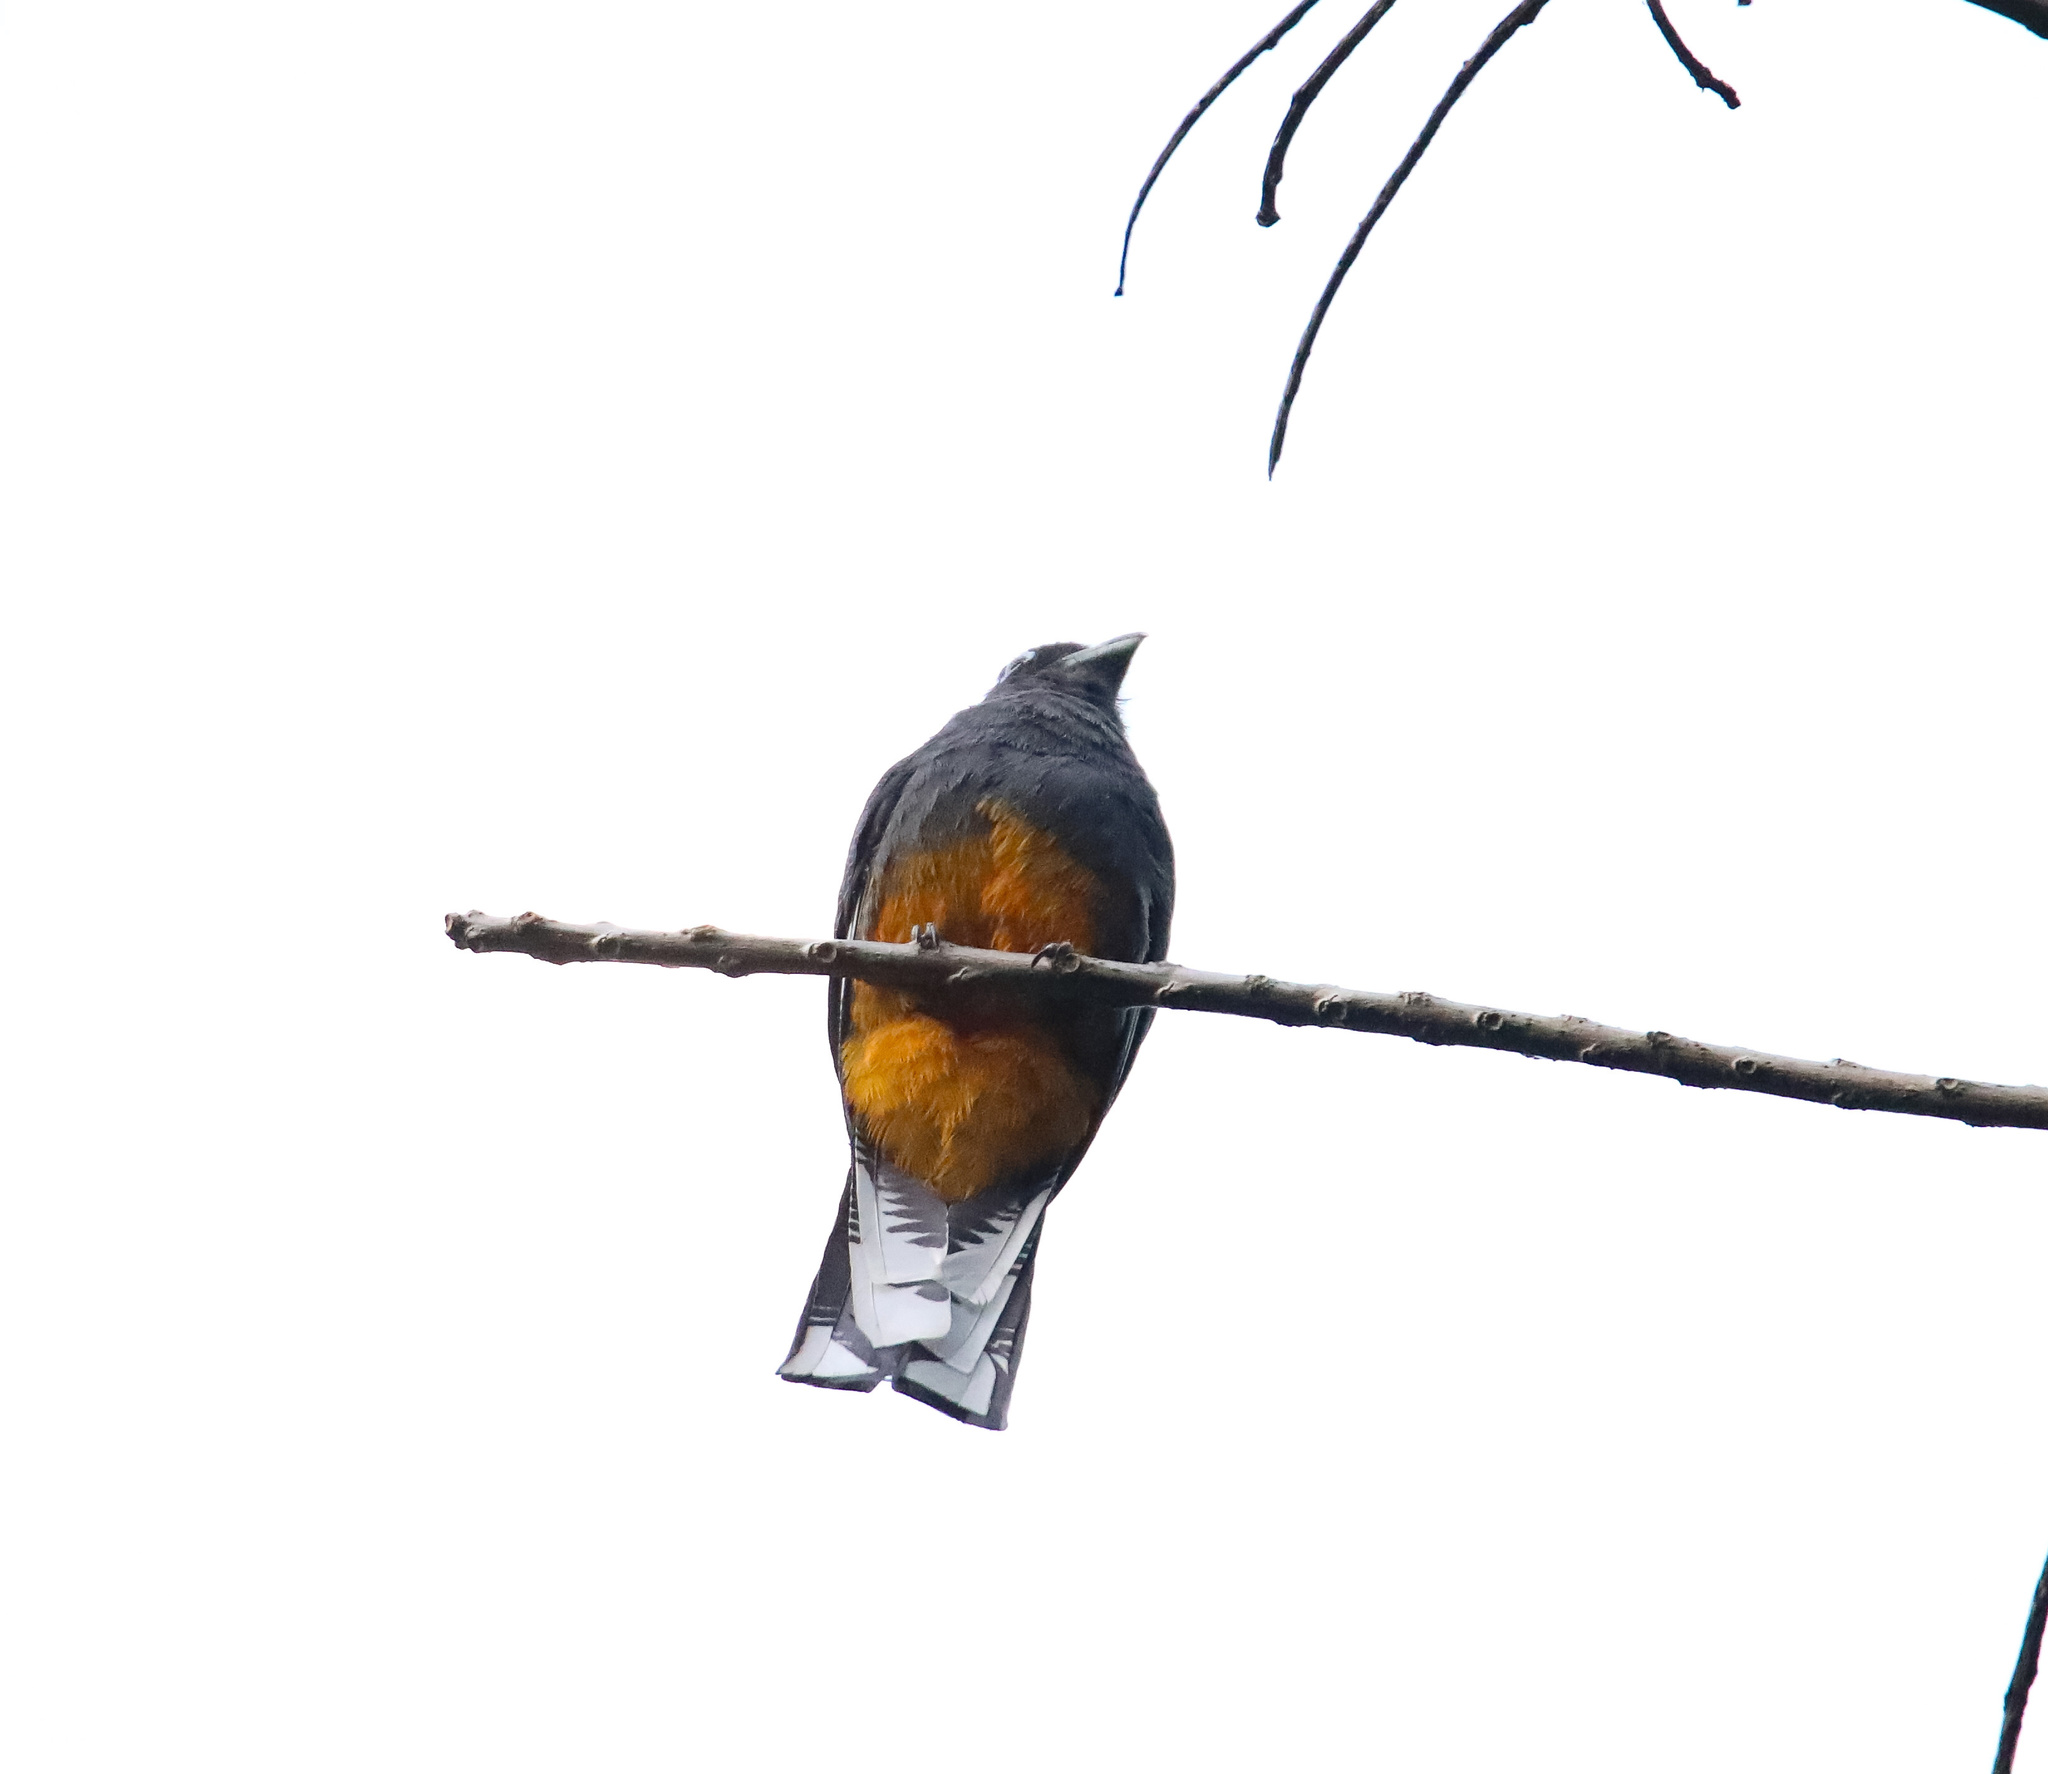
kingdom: Animalia
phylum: Chordata
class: Aves
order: Trogoniformes
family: Trogonidae
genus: Trogon
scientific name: Trogon chionurus
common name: White-tailed trogon
